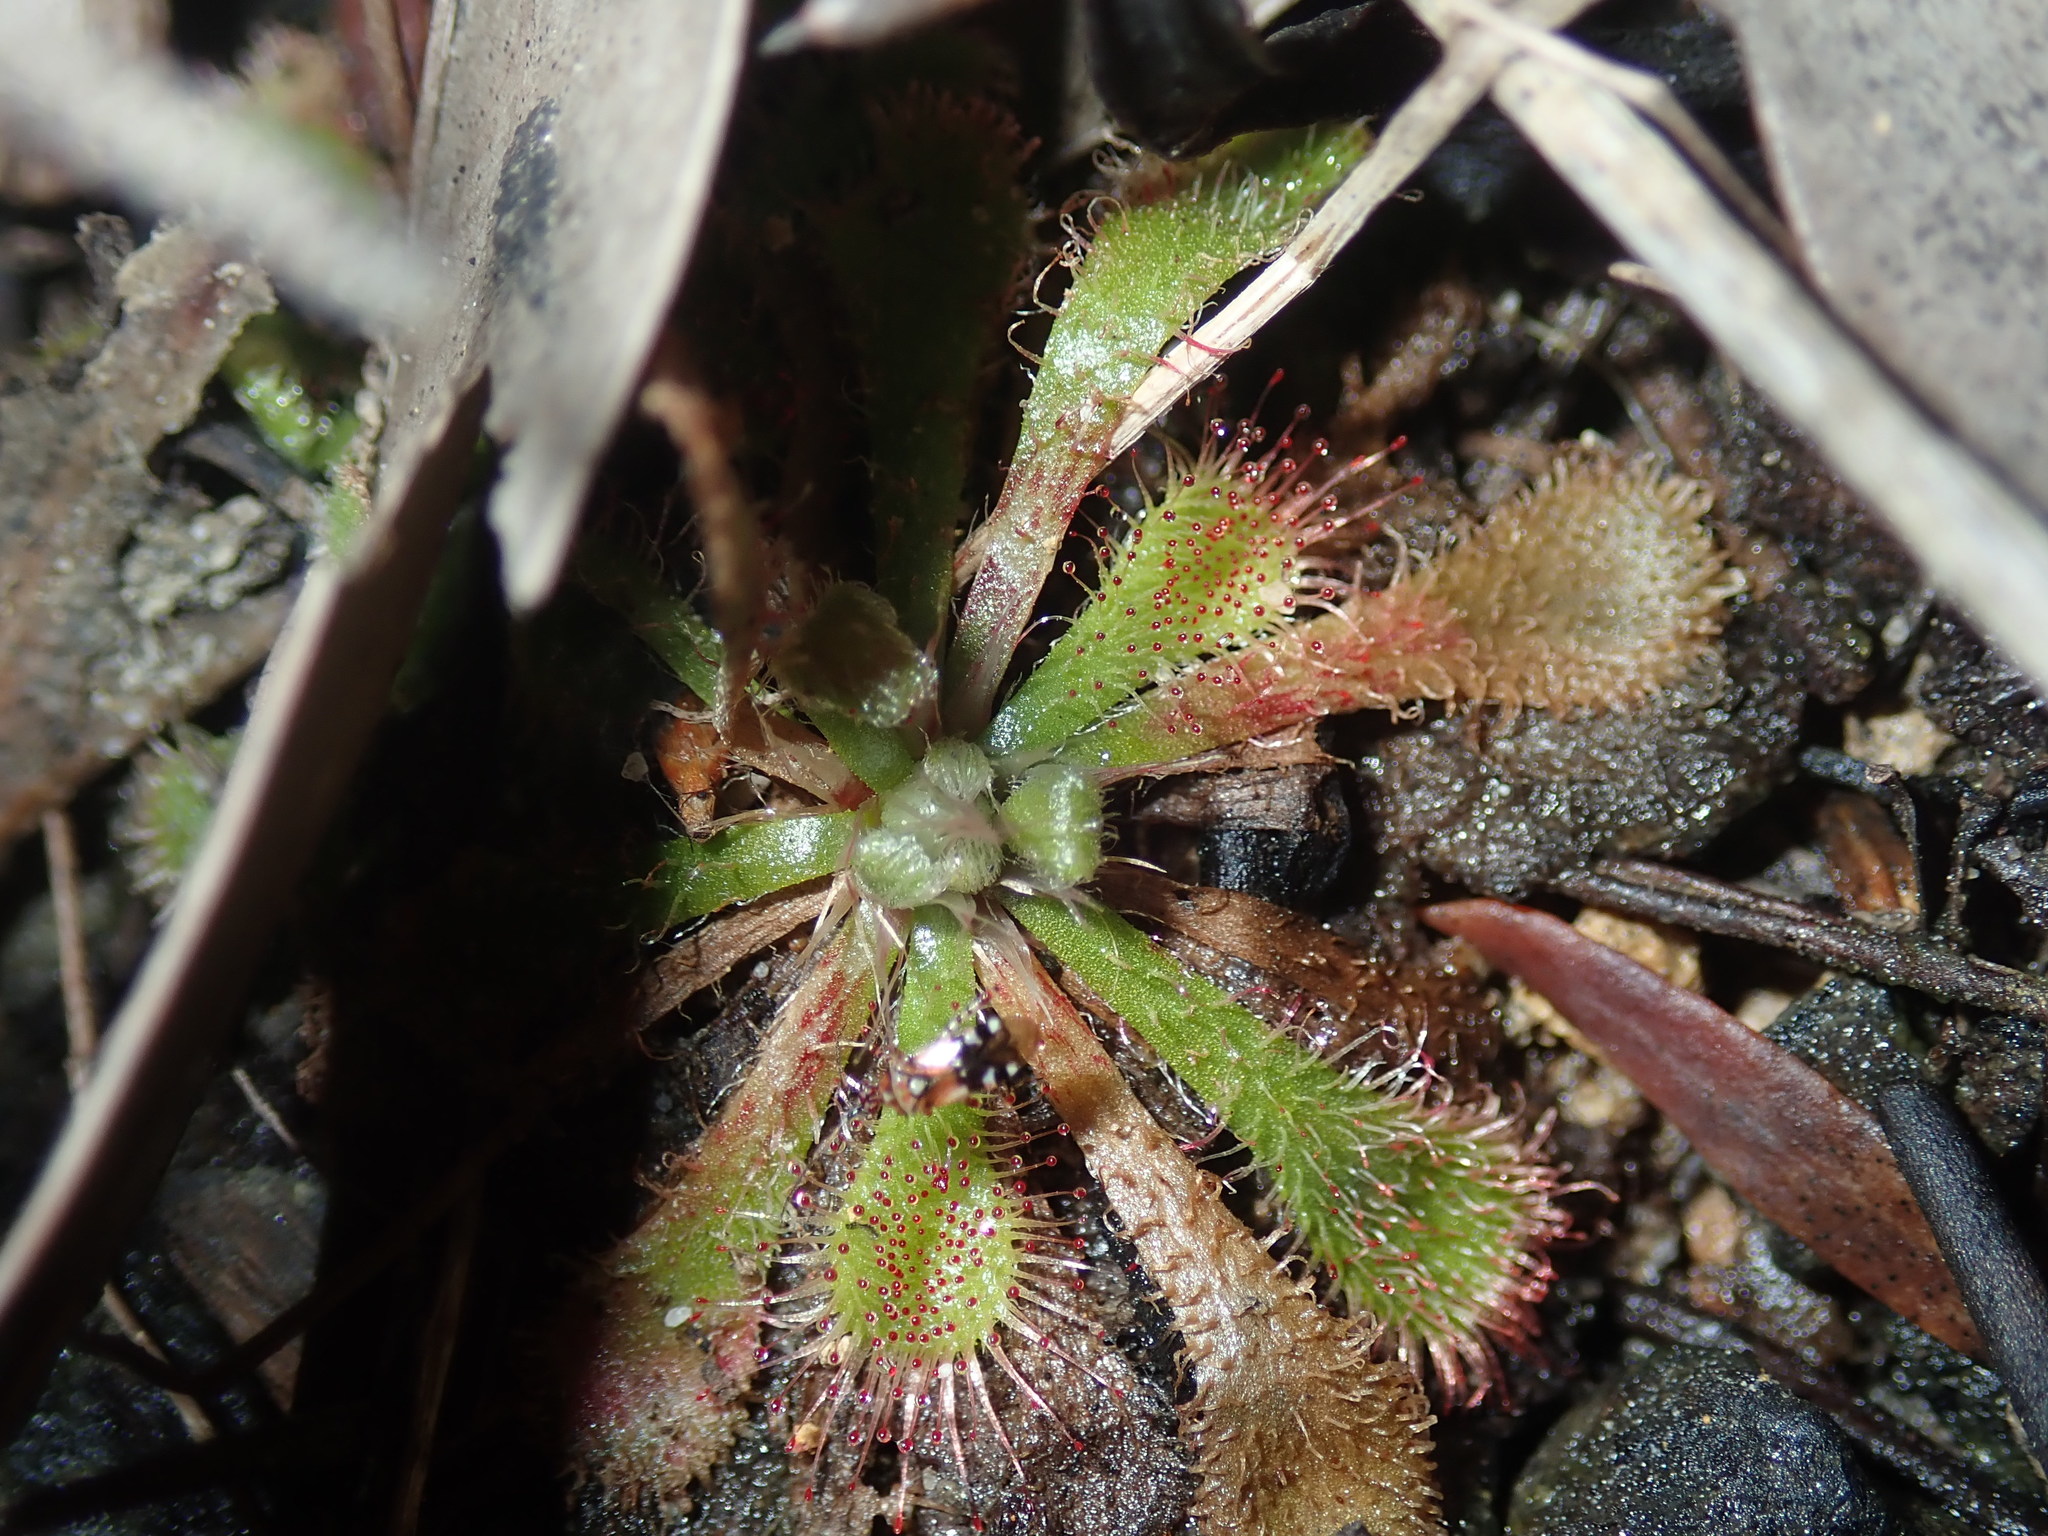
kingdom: Plantae
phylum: Tracheophyta
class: Magnoliopsida
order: Caryophyllales
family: Droseraceae
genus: Drosera
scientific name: Drosera spatulata
